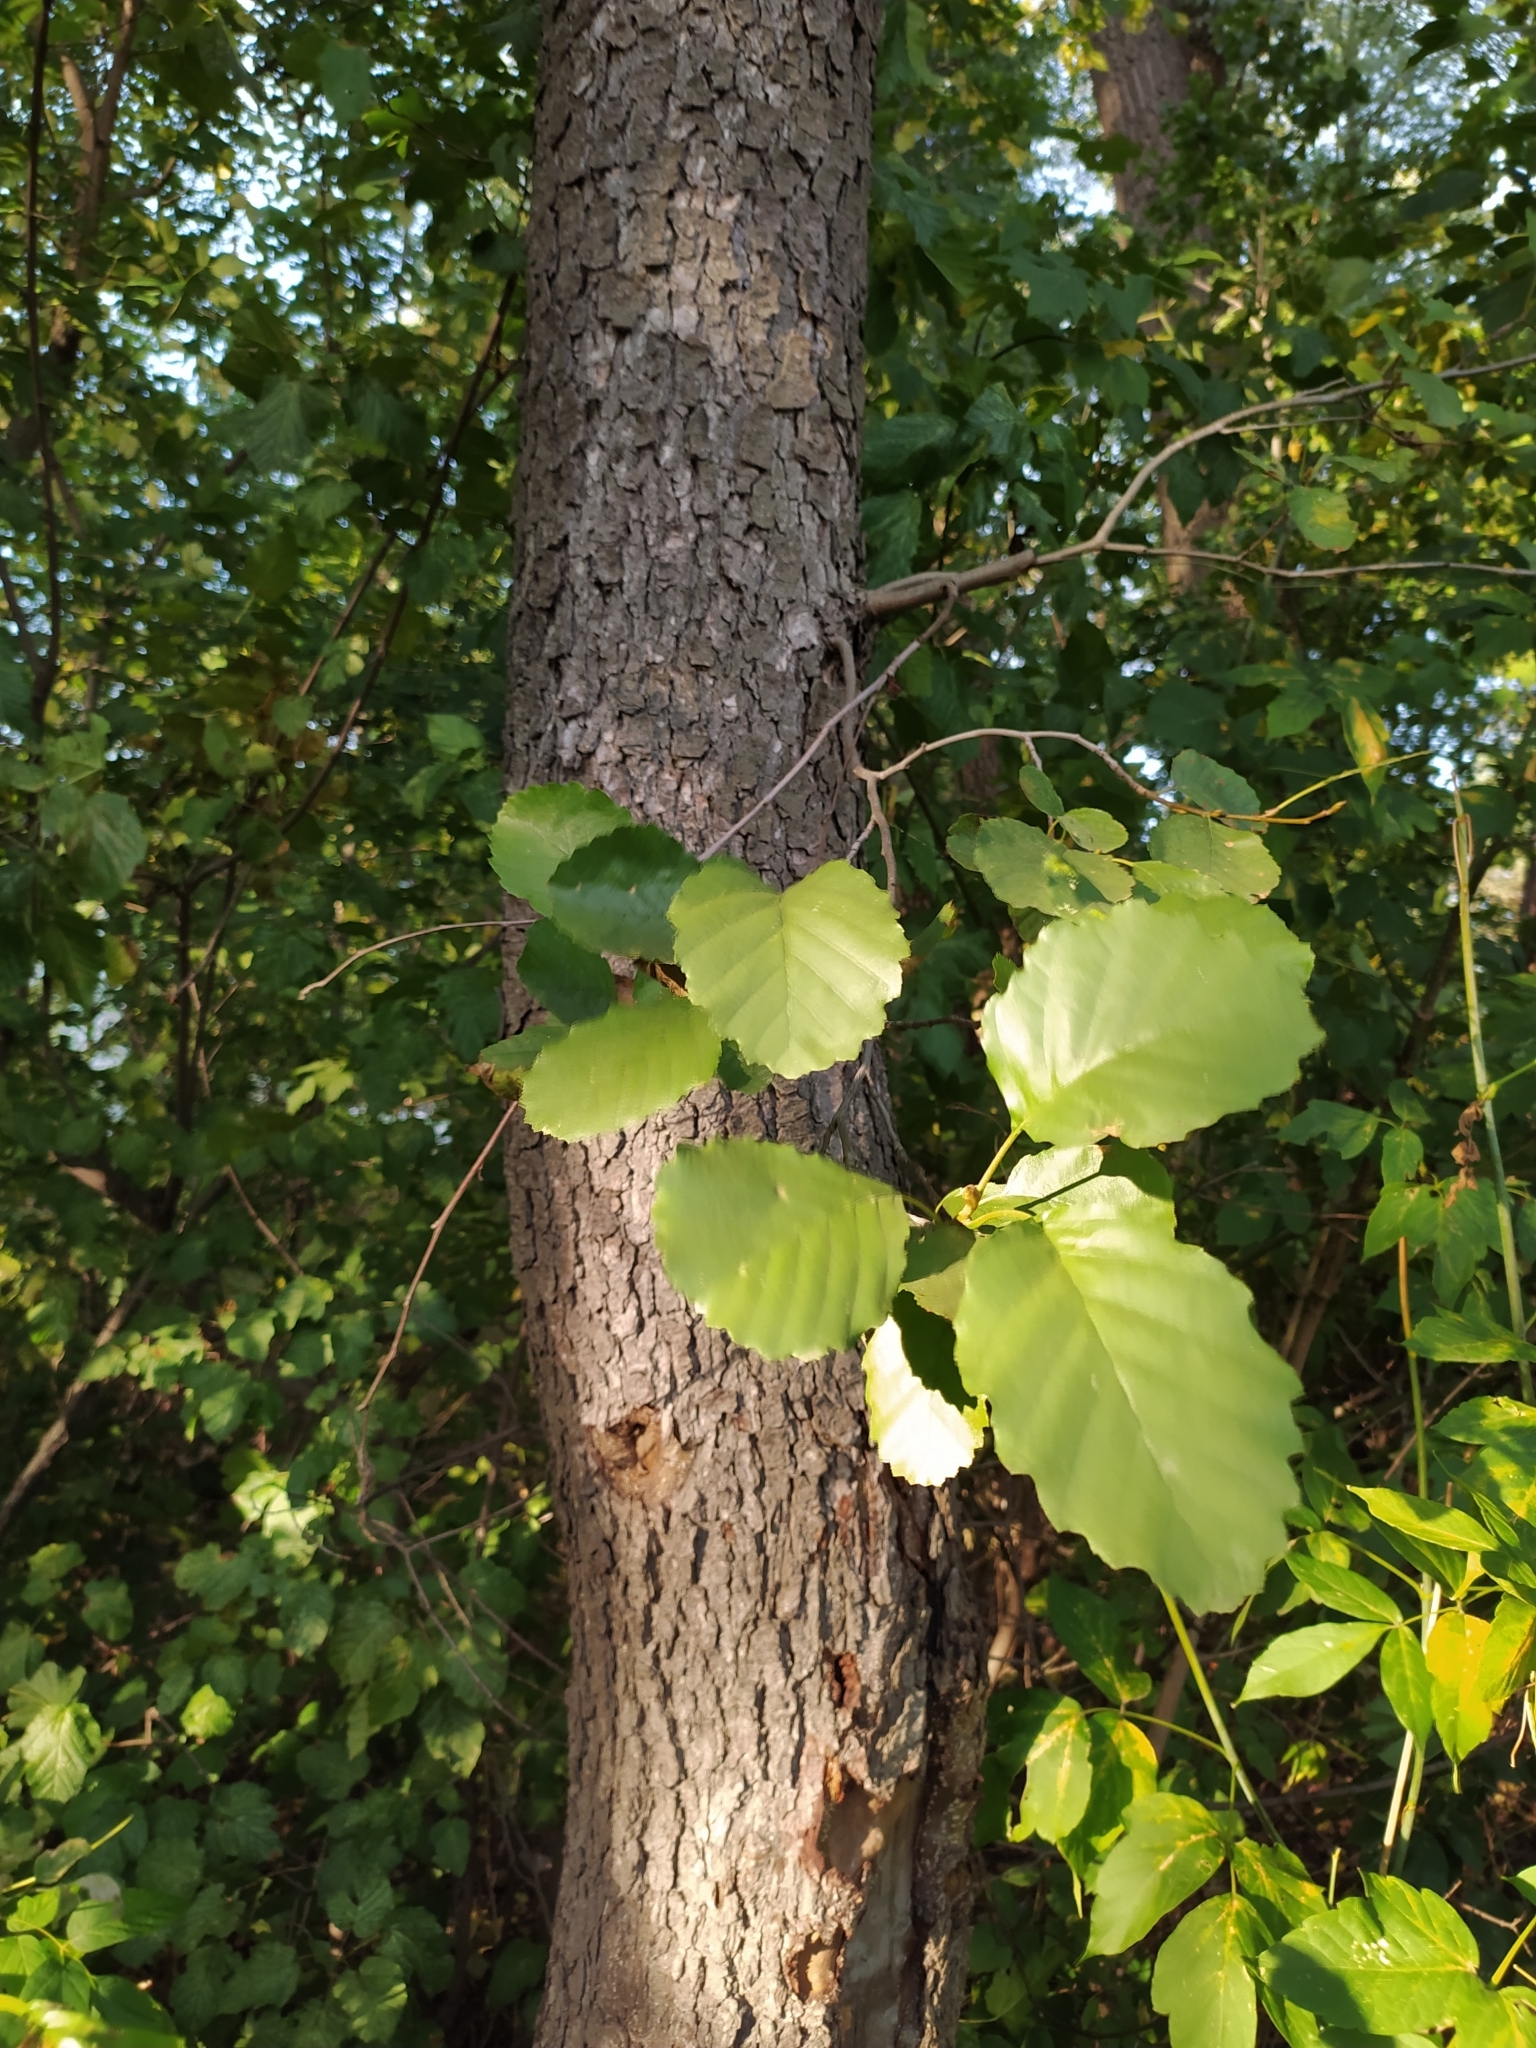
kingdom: Plantae
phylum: Tracheophyta
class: Magnoliopsida
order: Fagales
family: Betulaceae
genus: Alnus
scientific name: Alnus glutinosa
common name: Black alder
